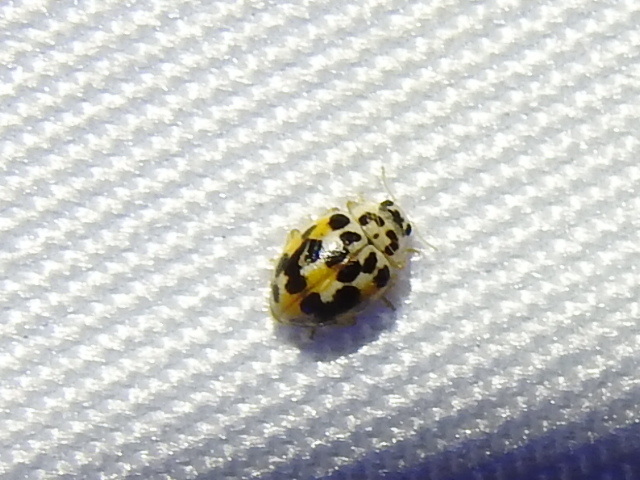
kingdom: Animalia
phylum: Arthropoda
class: Insecta
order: Coleoptera
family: Coccinellidae
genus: Psyllobora
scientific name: Psyllobora vigintimaculata
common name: Ladybird beetle
